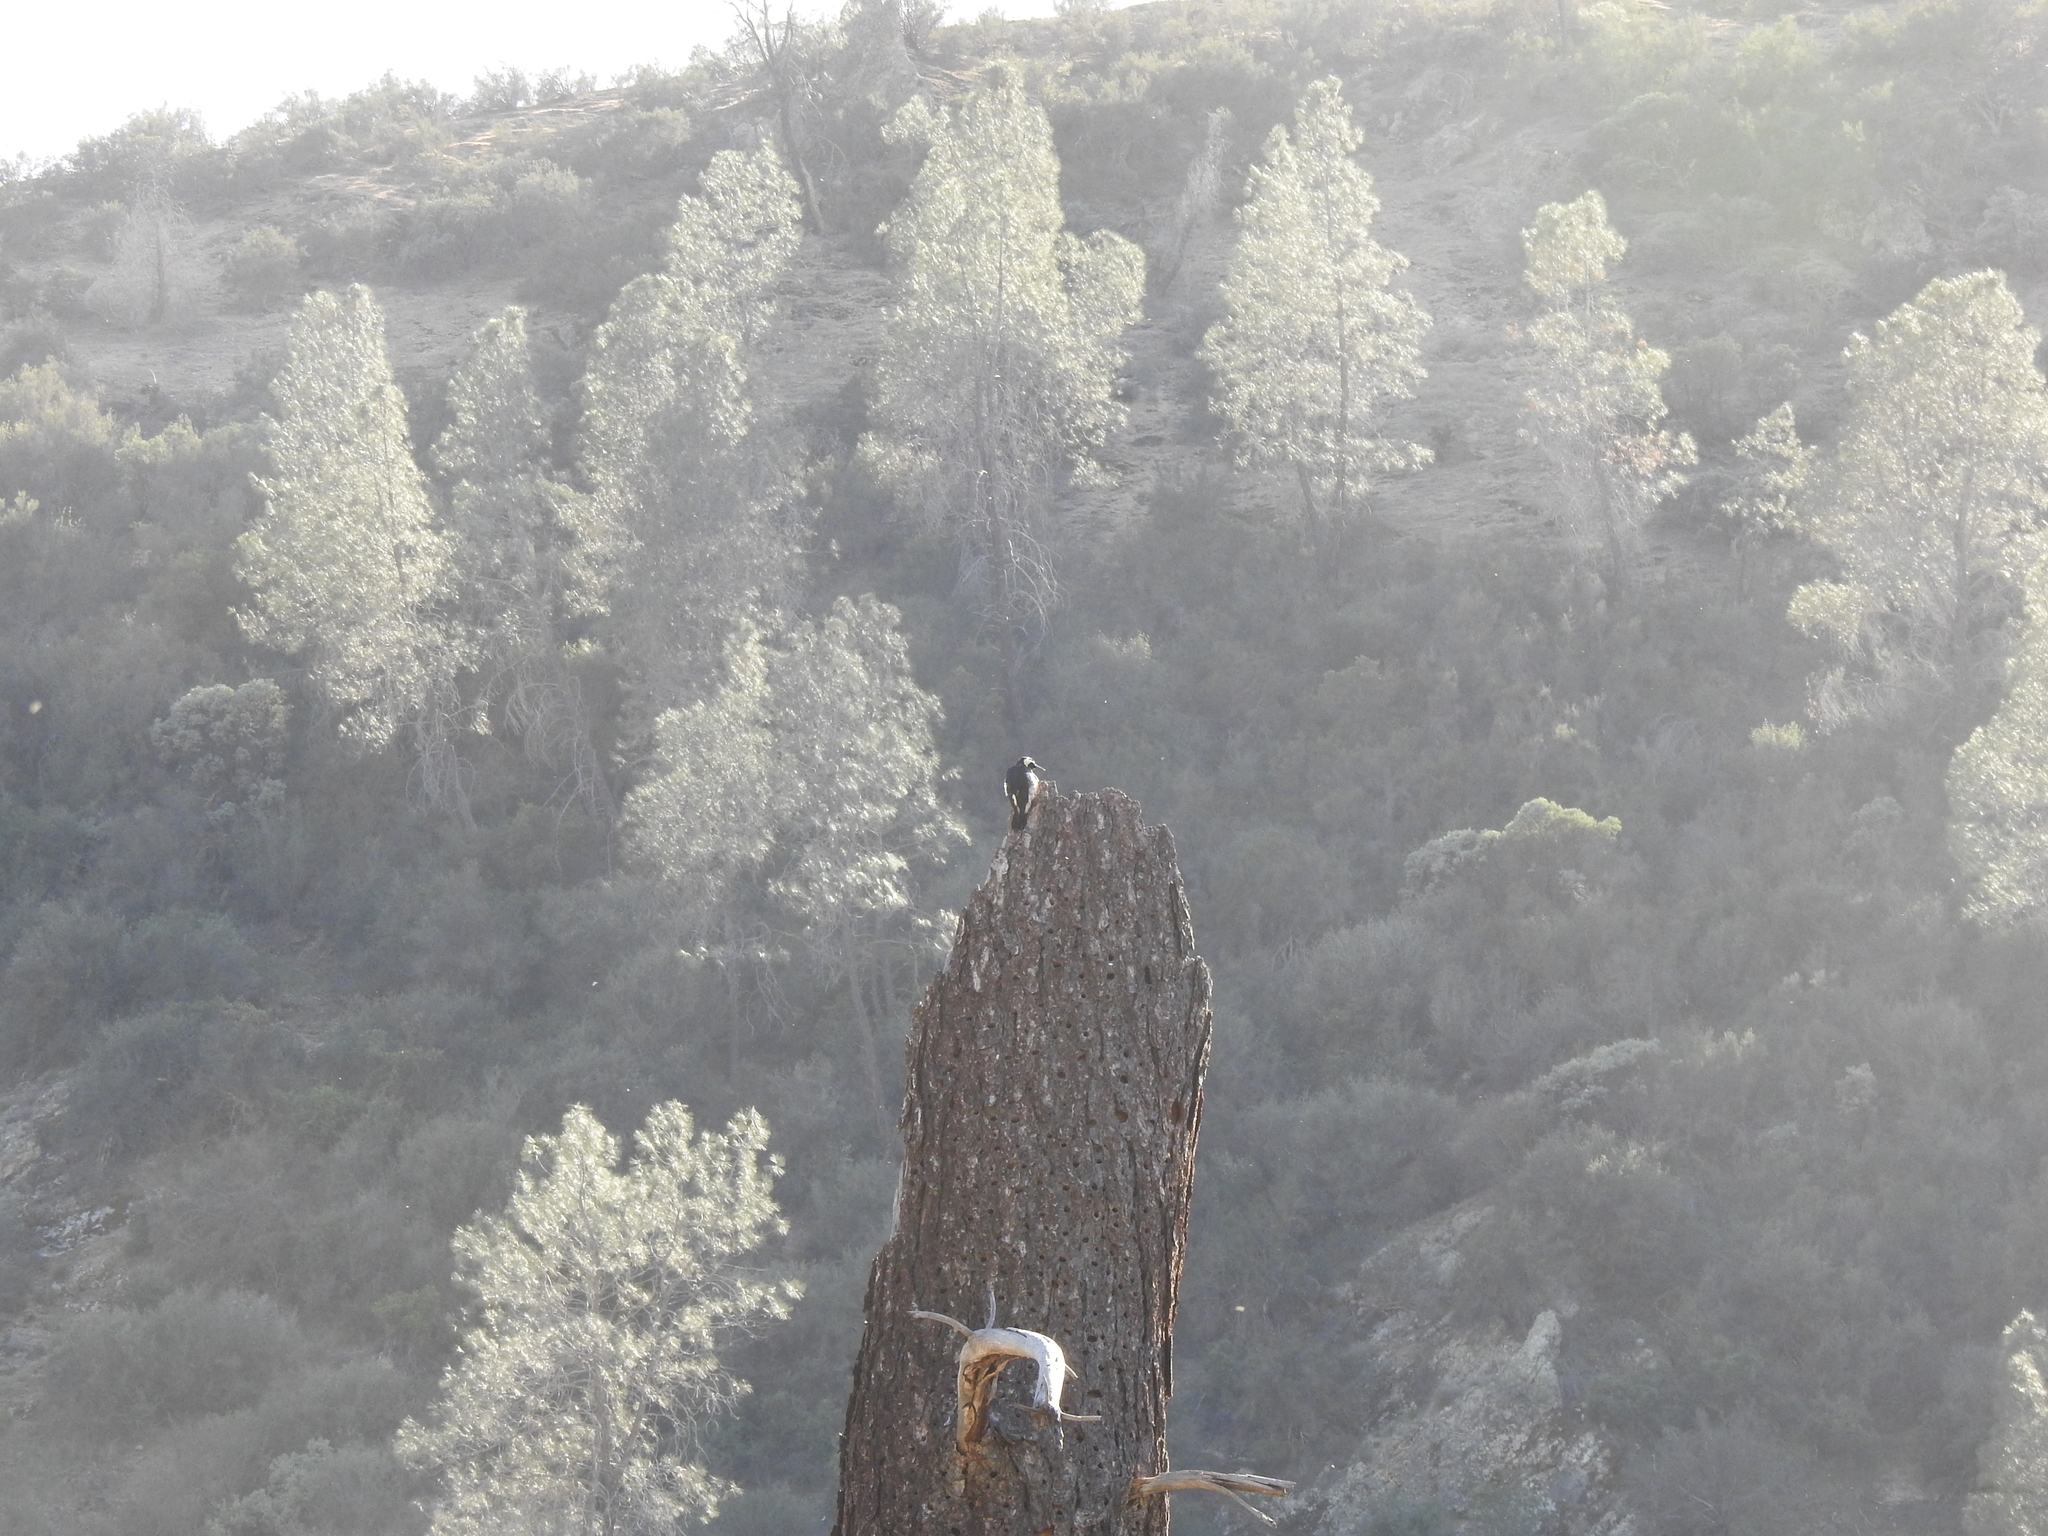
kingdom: Animalia
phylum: Chordata
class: Aves
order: Piciformes
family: Picidae
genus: Melanerpes
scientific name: Melanerpes formicivorus
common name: Acorn woodpecker
